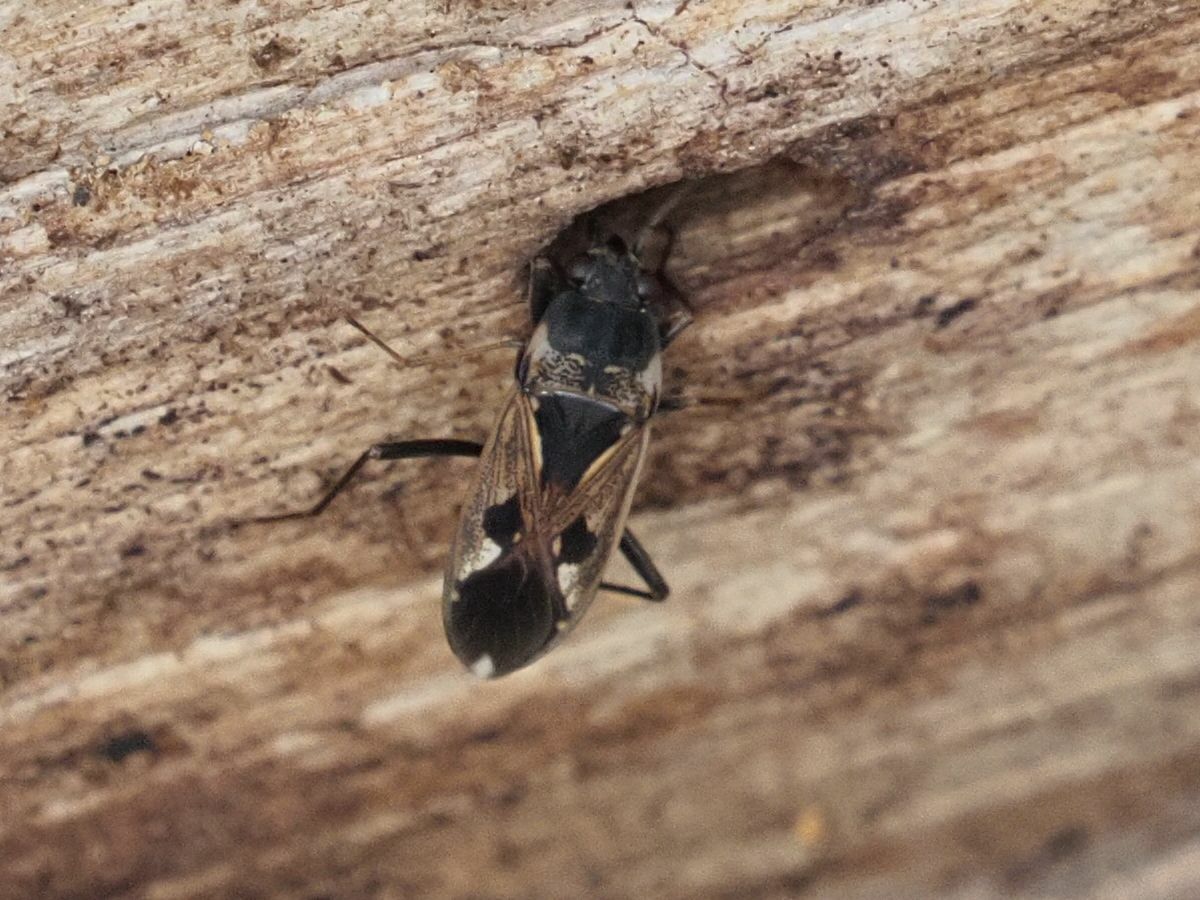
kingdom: Animalia
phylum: Arthropoda
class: Insecta
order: Hemiptera
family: Rhyparochromidae
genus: Rhyparochromus
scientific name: Rhyparochromus vulgaris
